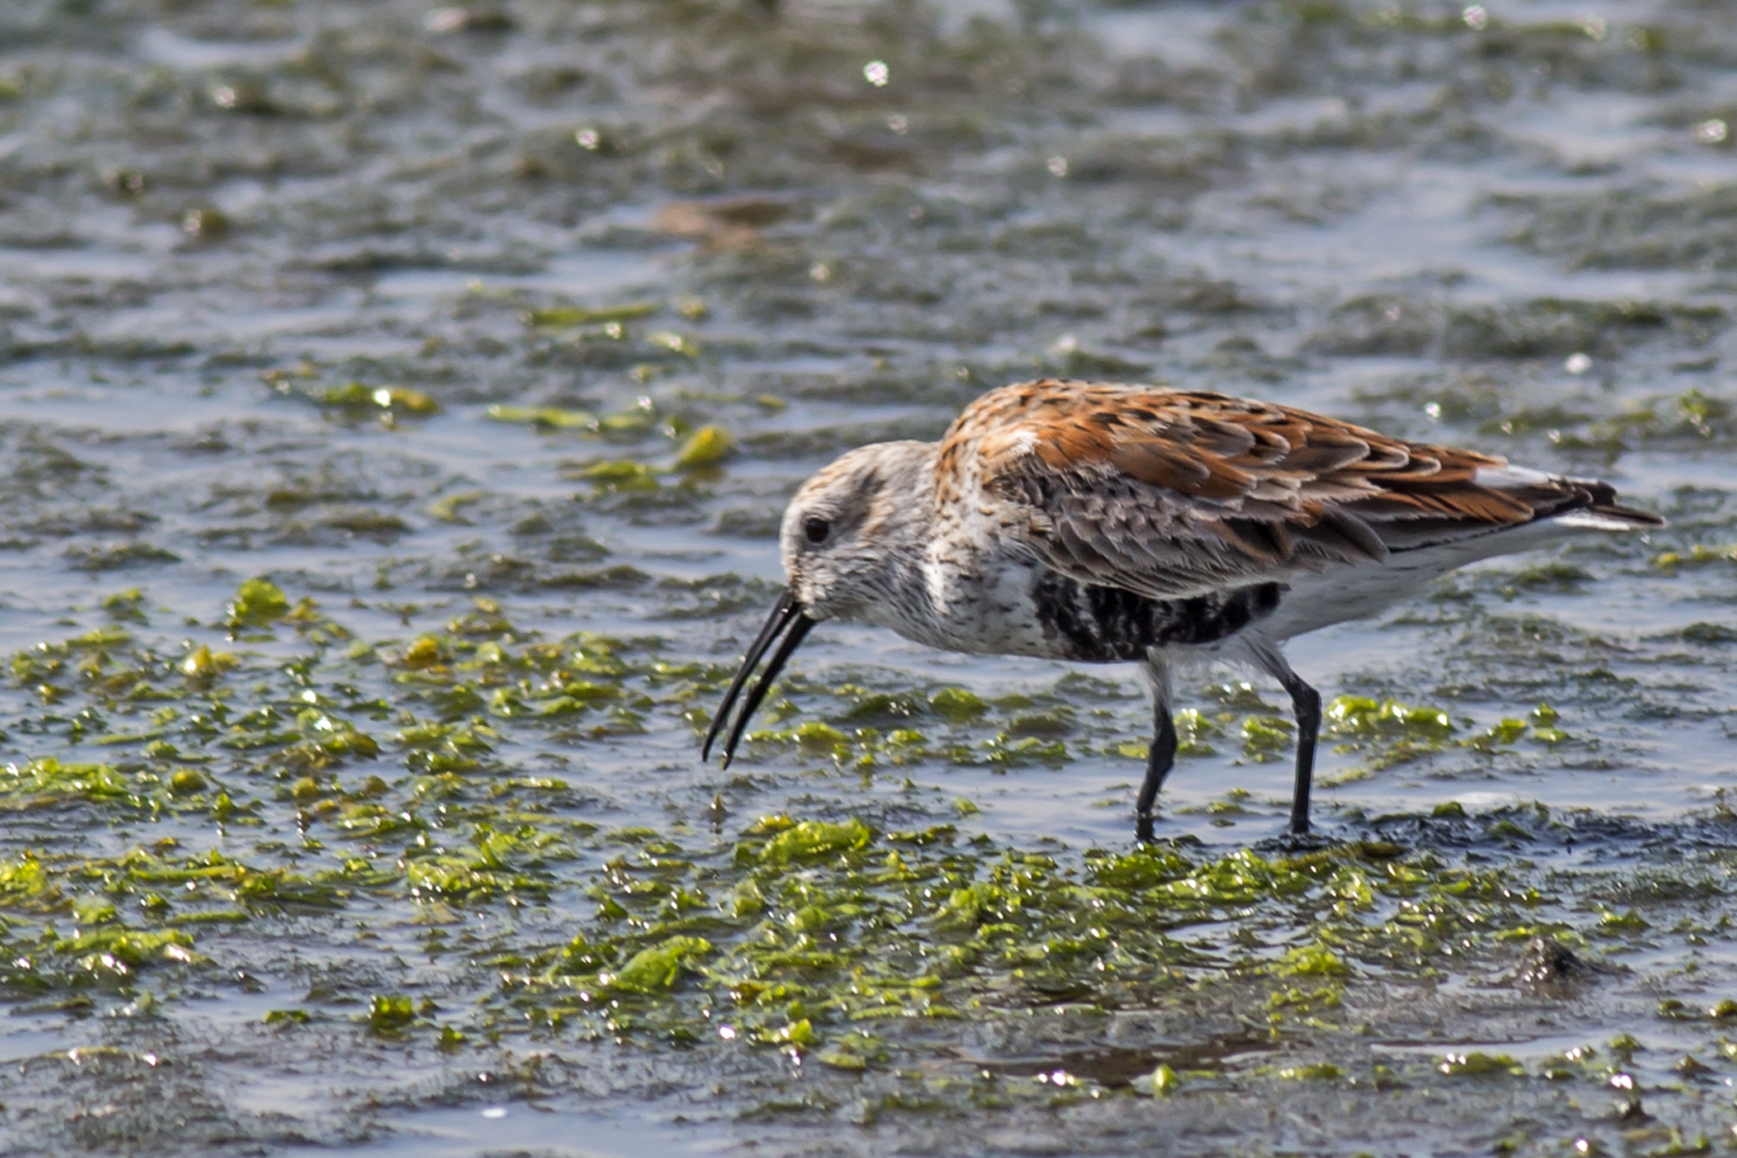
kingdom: Animalia
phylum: Chordata
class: Aves
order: Charadriiformes
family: Scolopacidae
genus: Calidris
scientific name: Calidris alpina
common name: Dunlin
